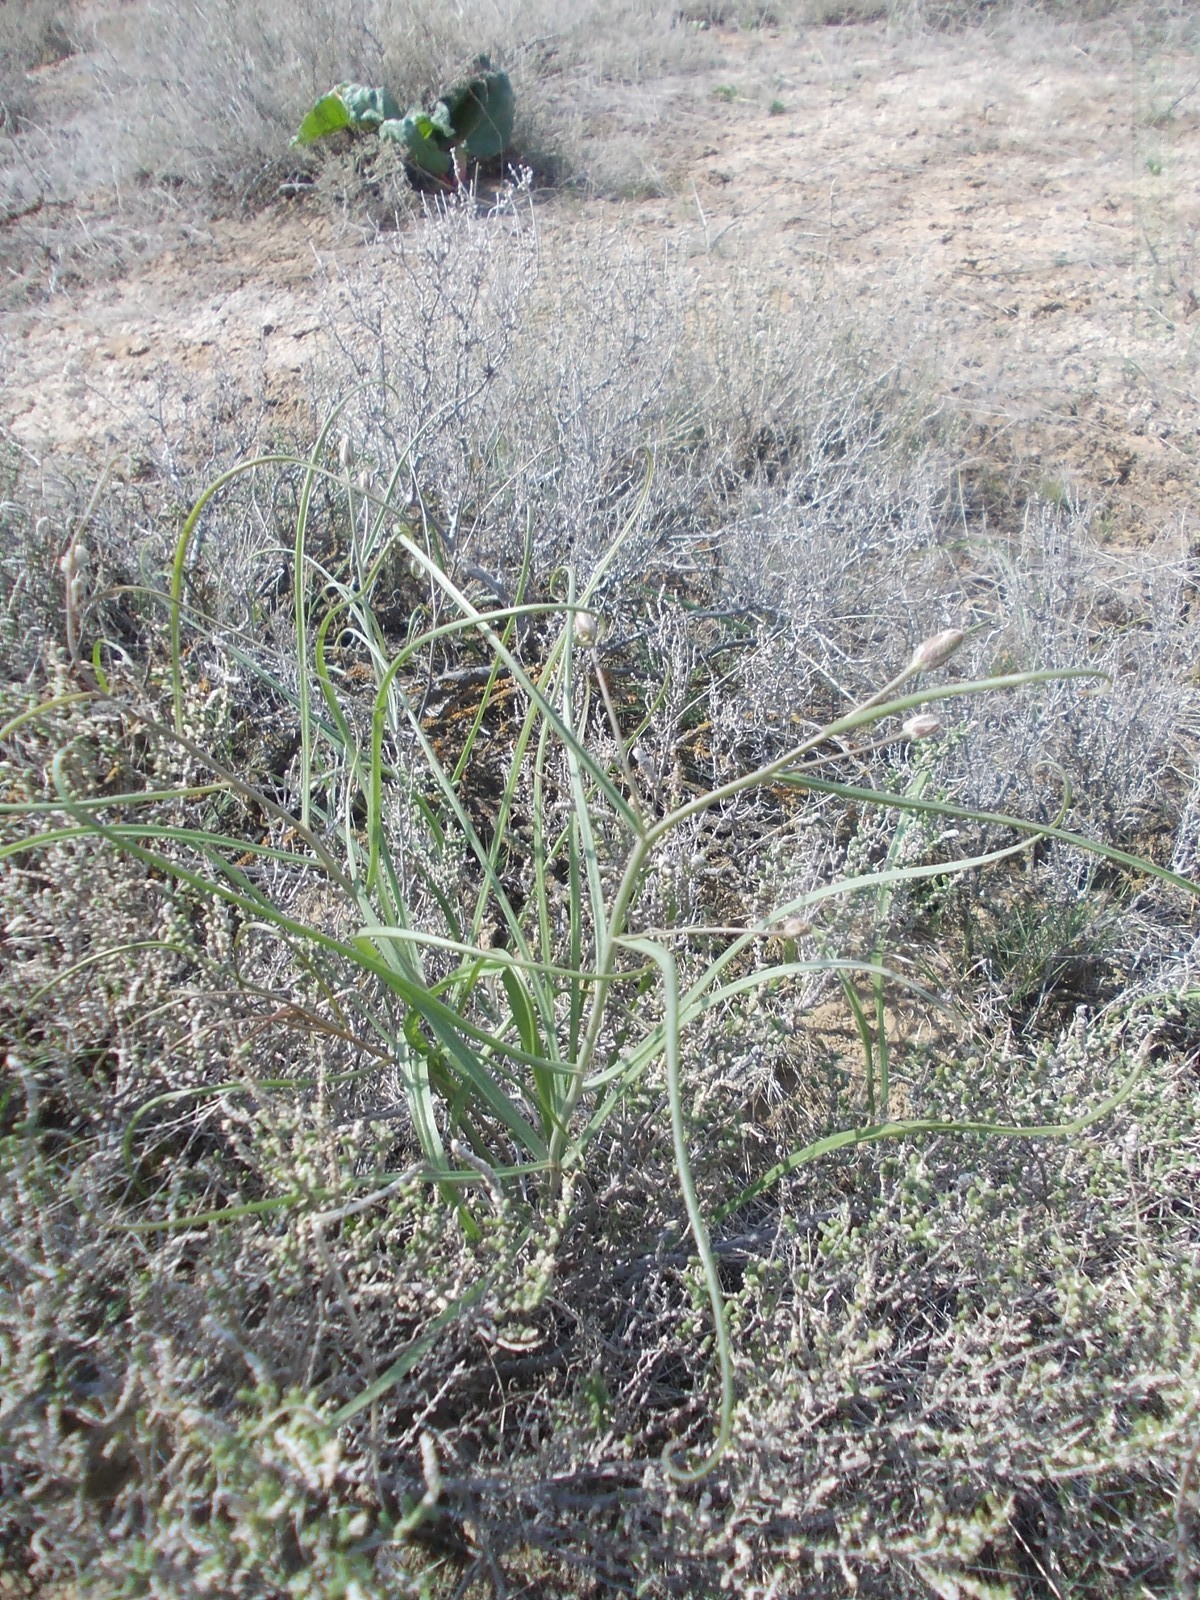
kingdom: Plantae
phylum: Tracheophyta
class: Magnoliopsida
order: Asterales
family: Asteraceae
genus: Takhtajaniantha
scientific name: Takhtajaniantha pusilla
